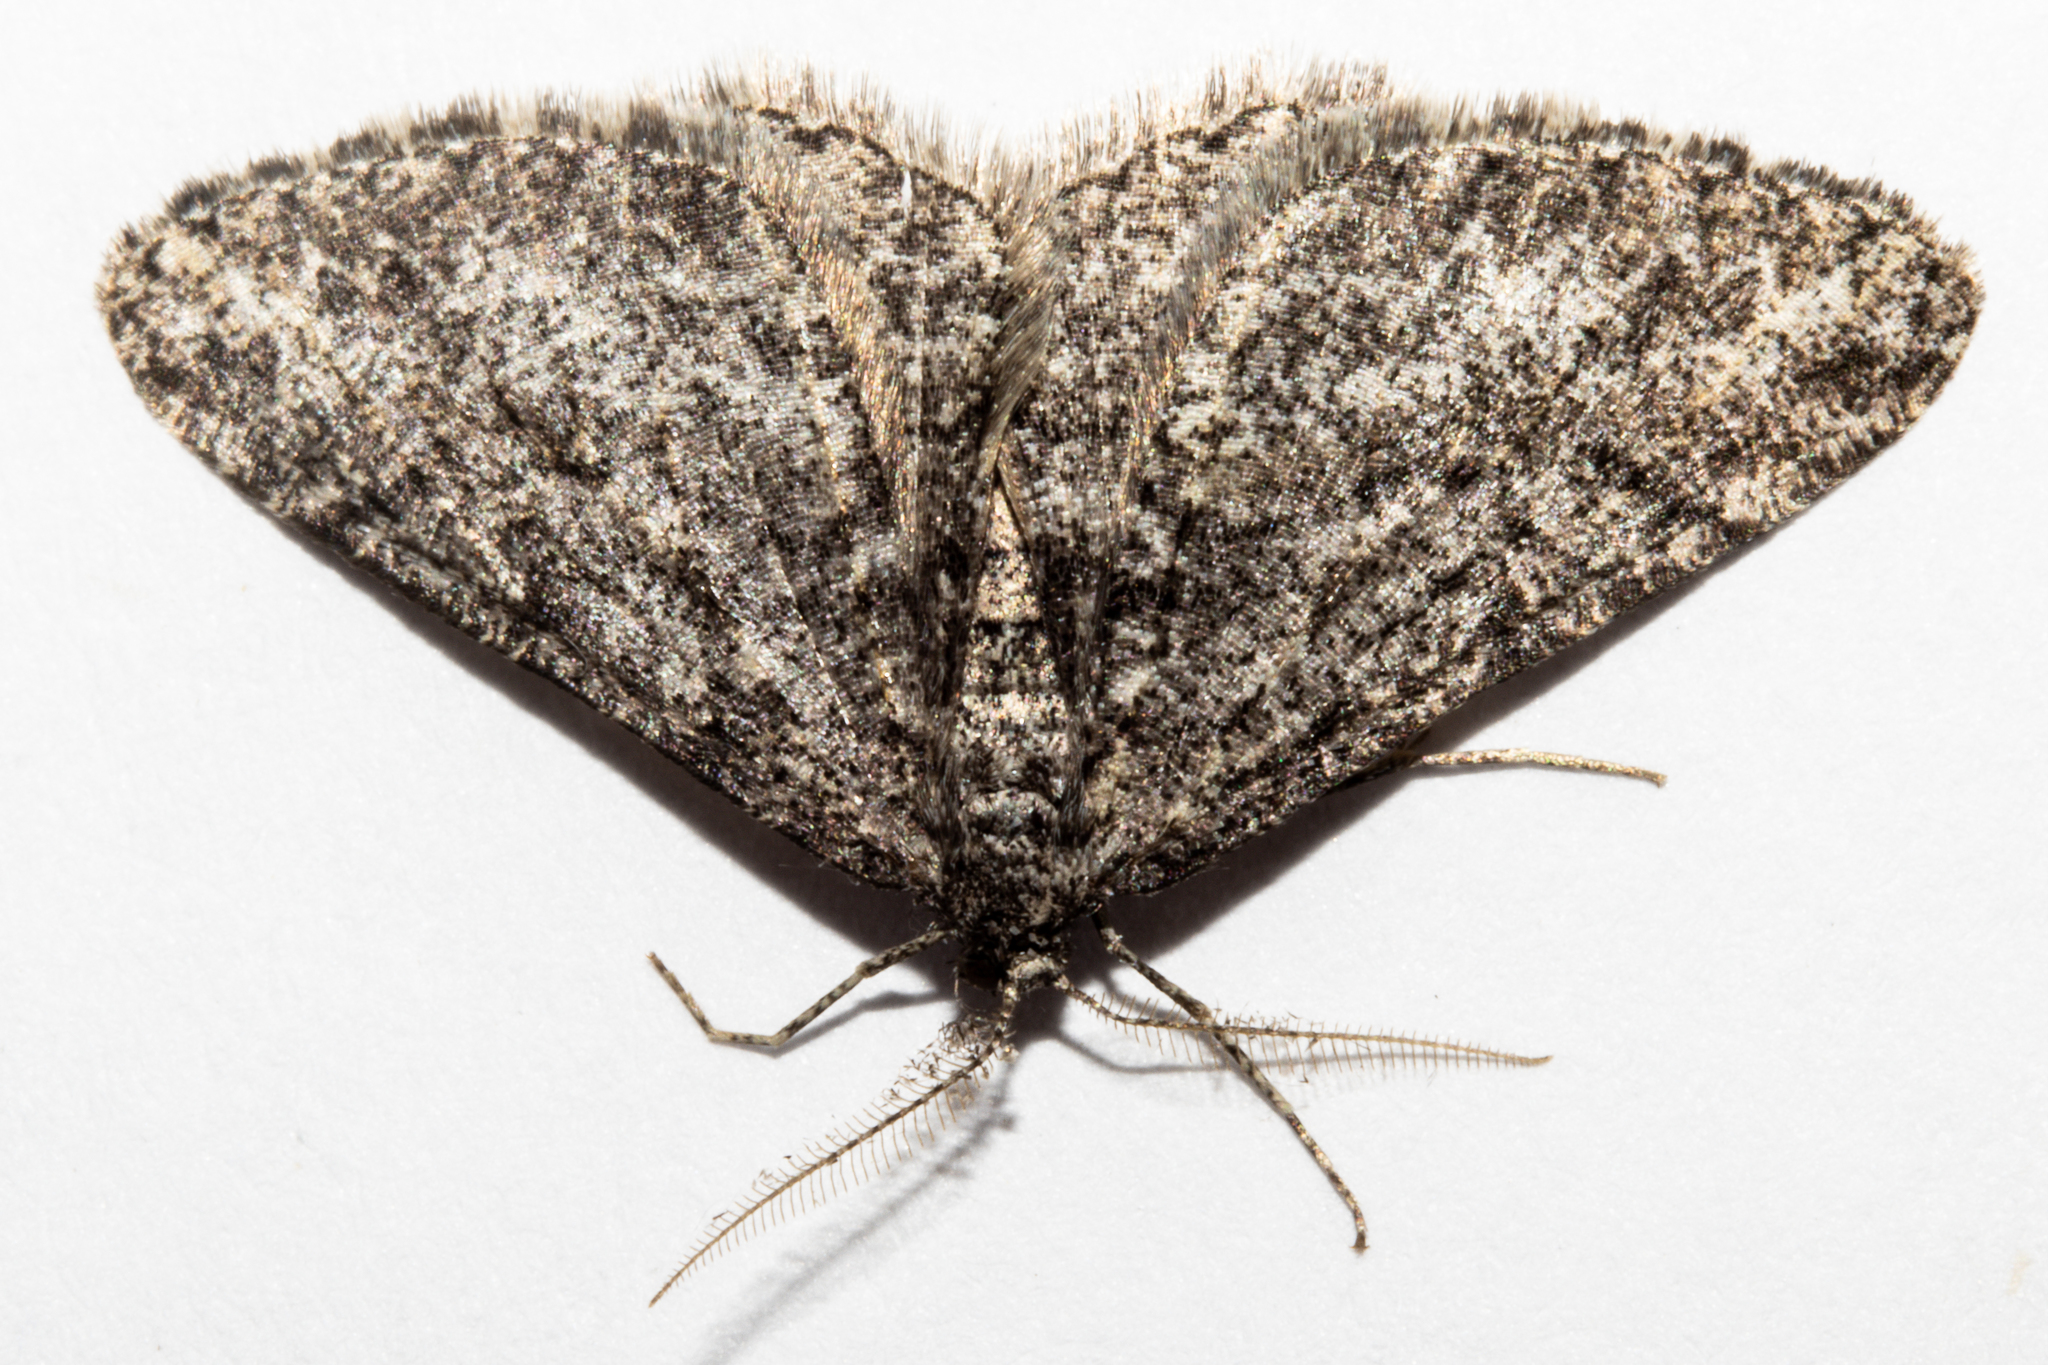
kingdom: Animalia
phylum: Arthropoda
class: Insecta
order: Lepidoptera
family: Geometridae
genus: Zermizinga
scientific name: Zermizinga indocilisaria
